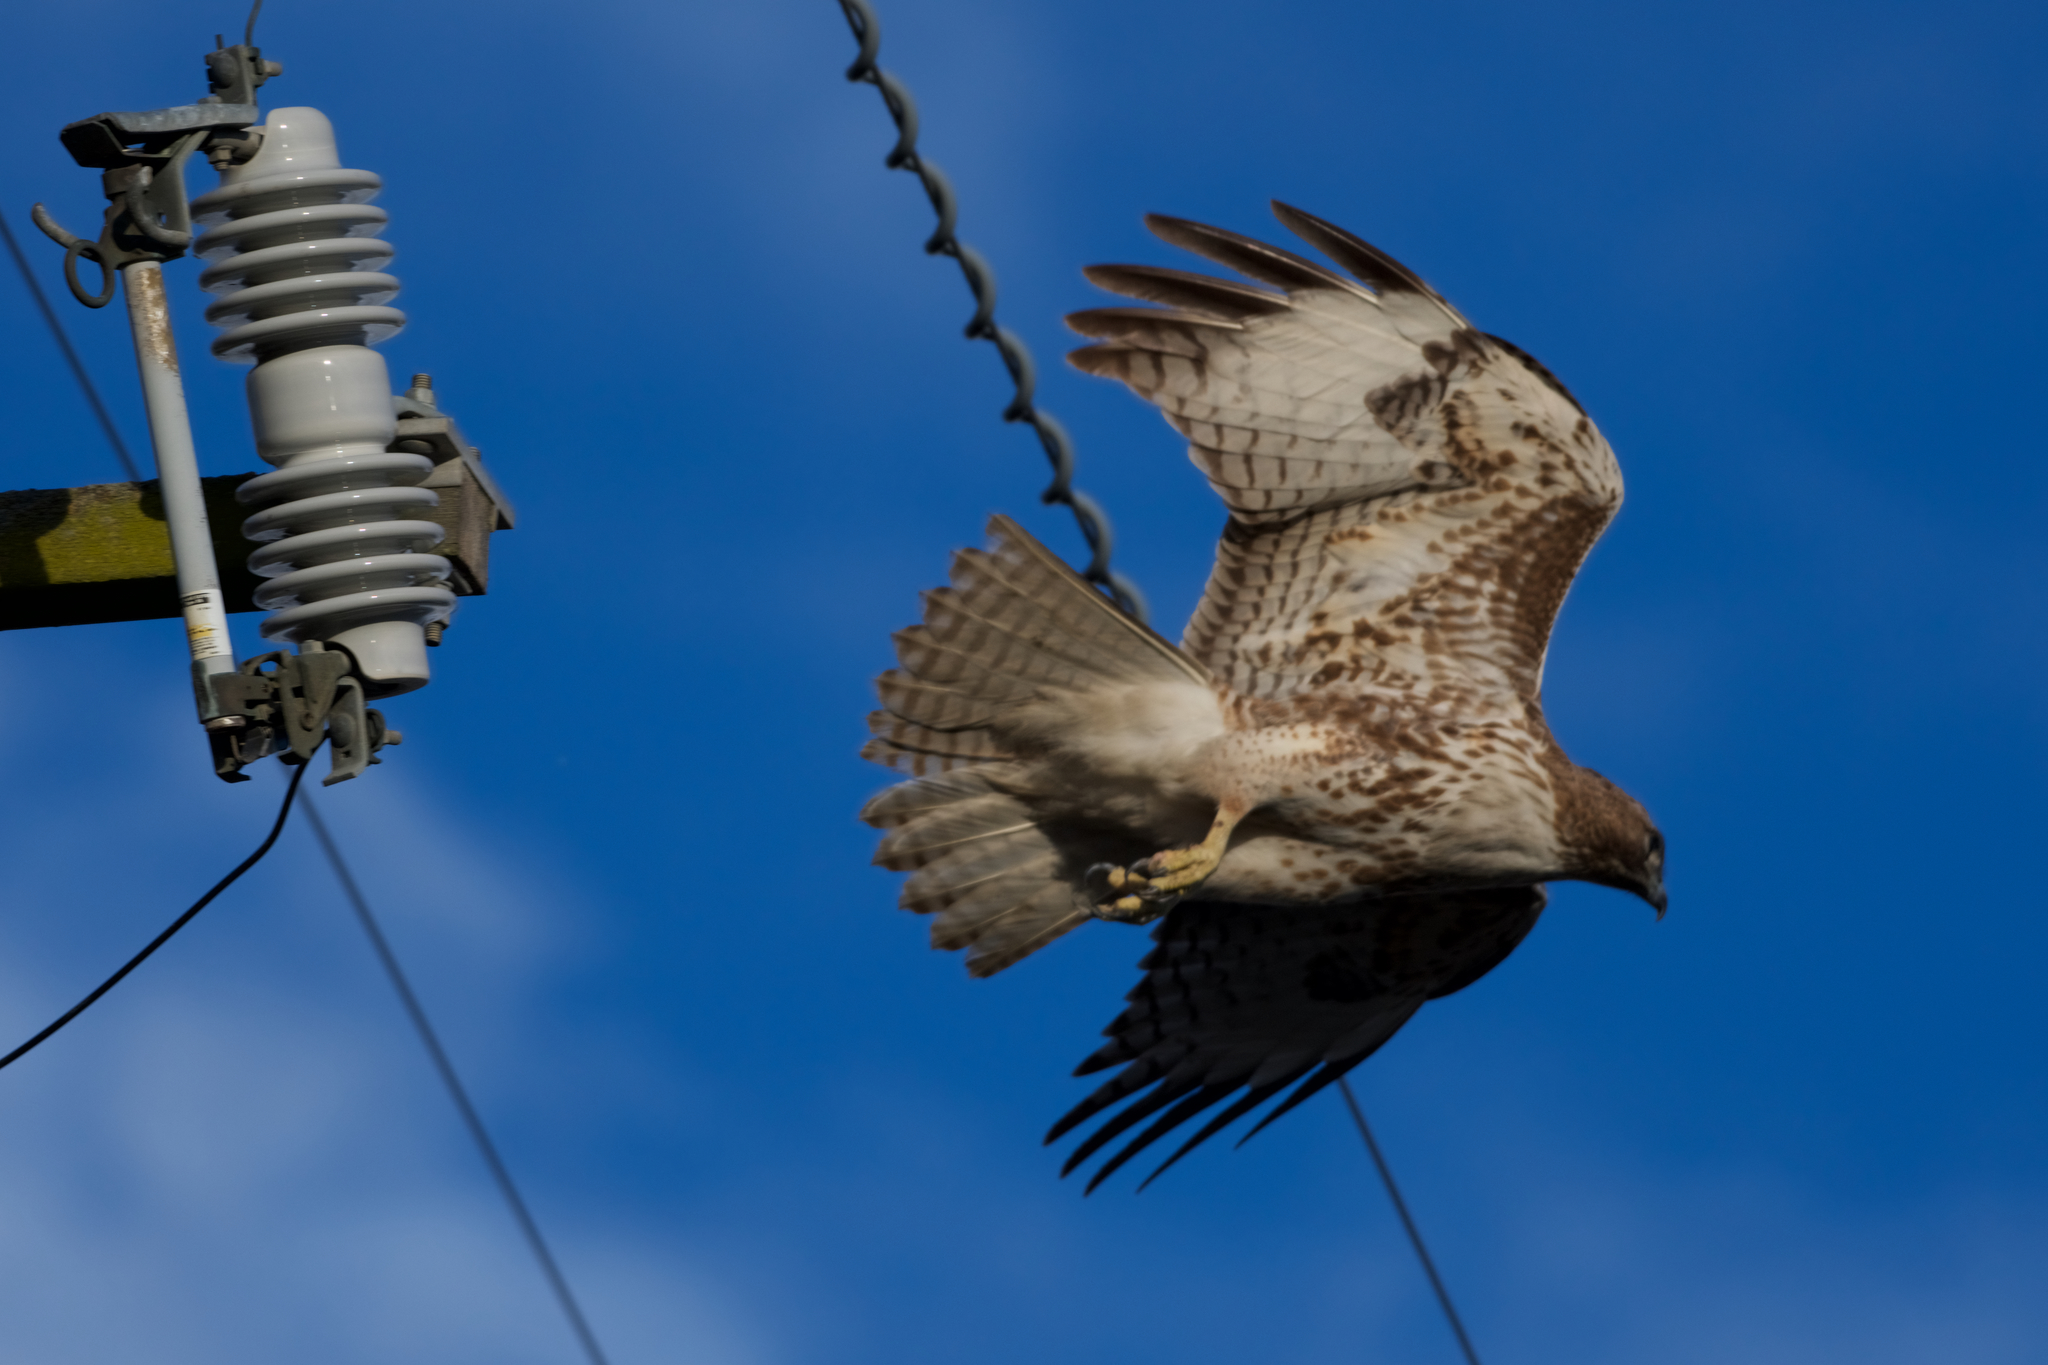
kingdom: Animalia
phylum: Chordata
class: Aves
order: Accipitriformes
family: Accipitridae
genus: Buteo
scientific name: Buteo jamaicensis
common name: Red-tailed hawk
